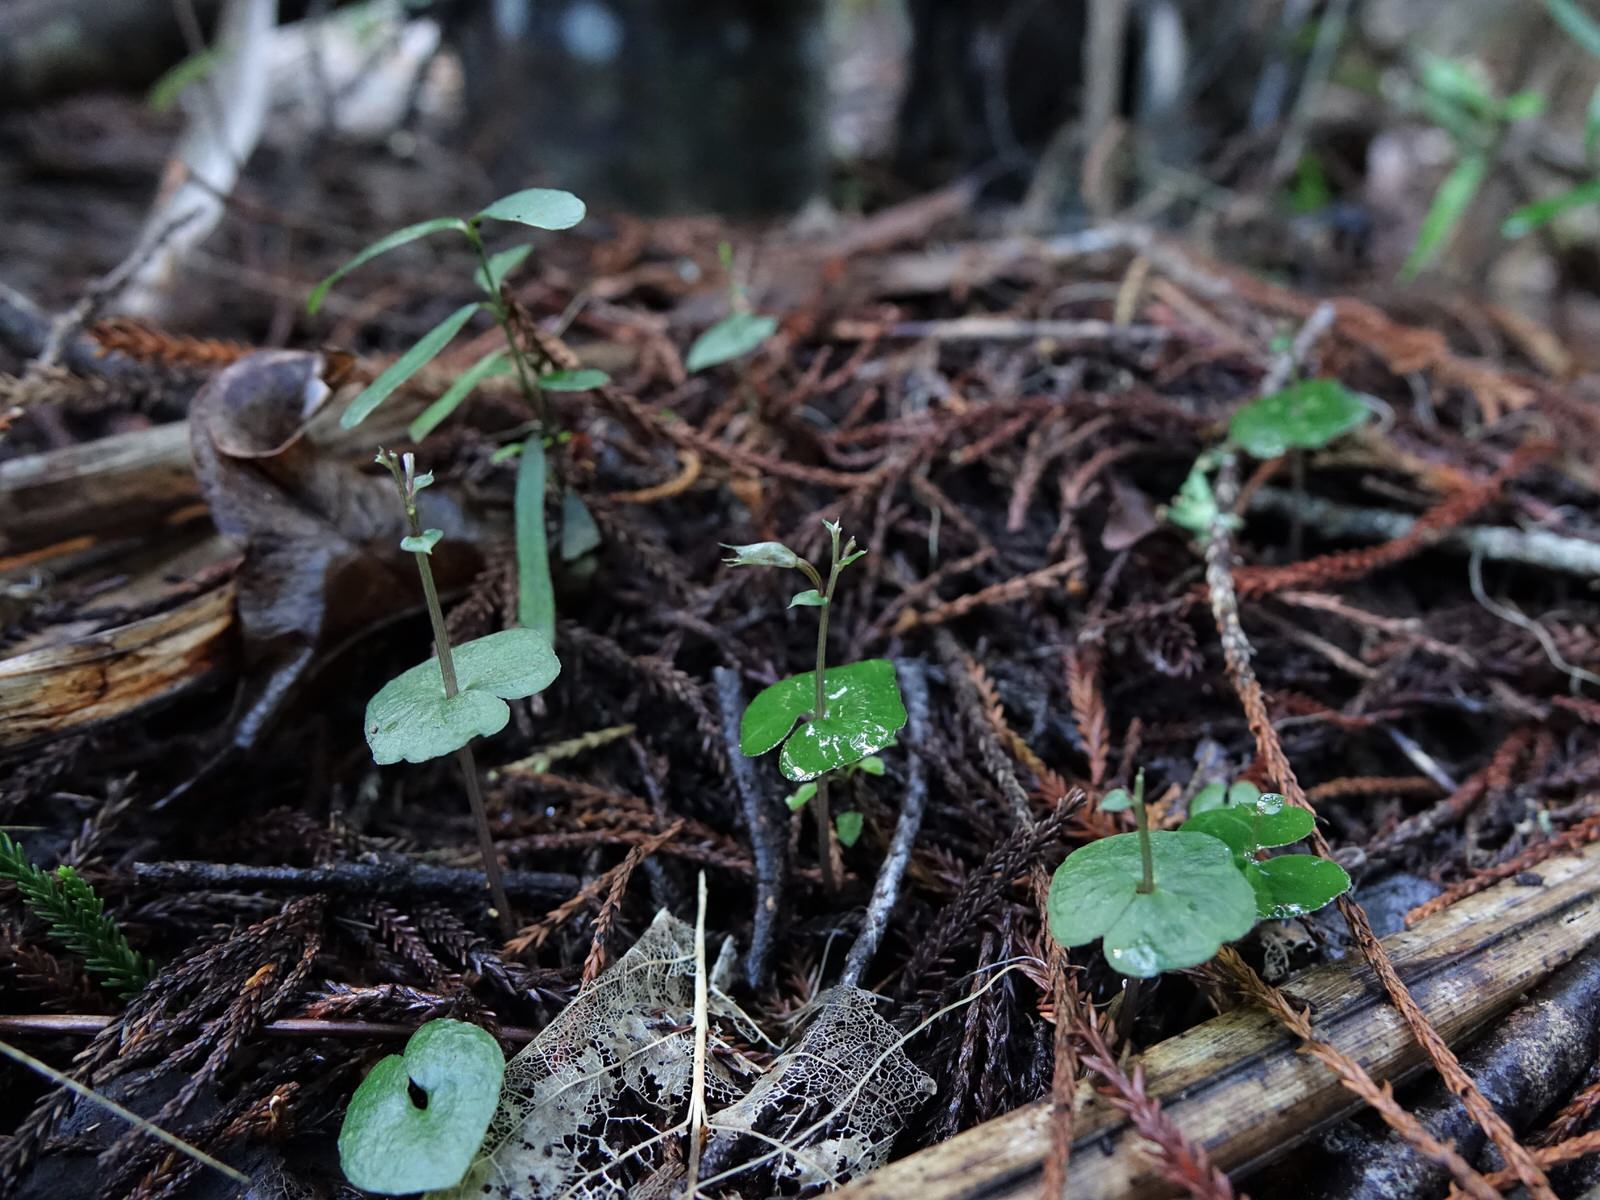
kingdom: Plantae
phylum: Tracheophyta
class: Liliopsida
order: Asparagales
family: Orchidaceae
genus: Acianthus
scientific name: Acianthus sinclairii
